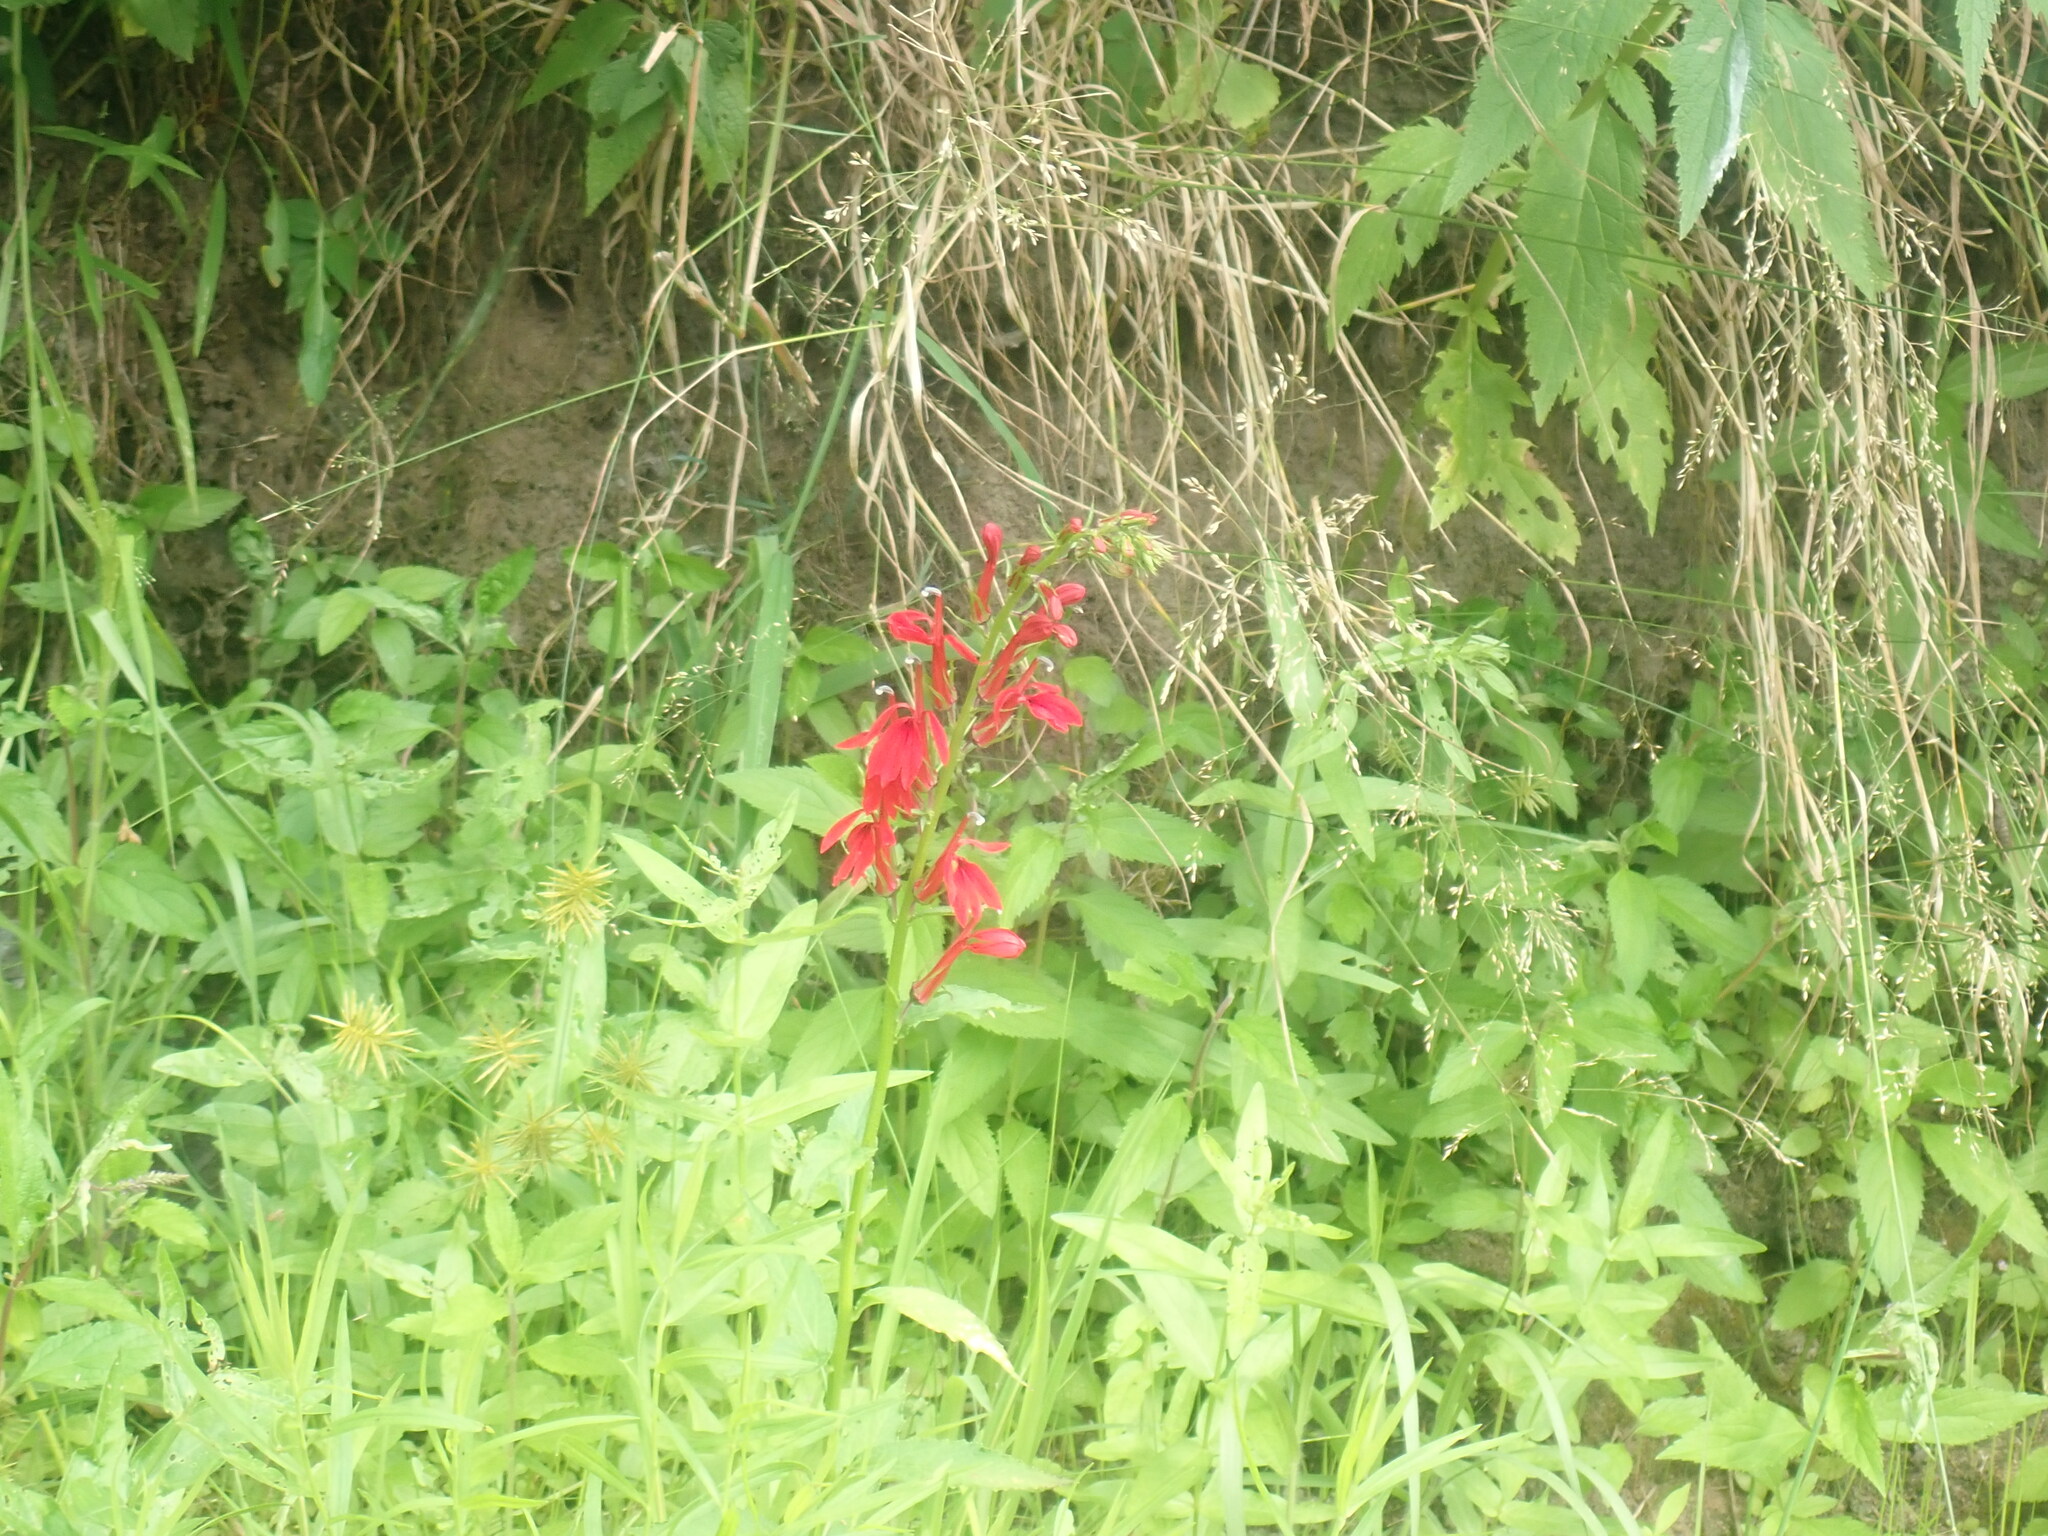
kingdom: Plantae
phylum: Tracheophyta
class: Magnoliopsida
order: Asterales
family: Campanulaceae
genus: Lobelia
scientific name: Lobelia cardinalis
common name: Cardinal flower
